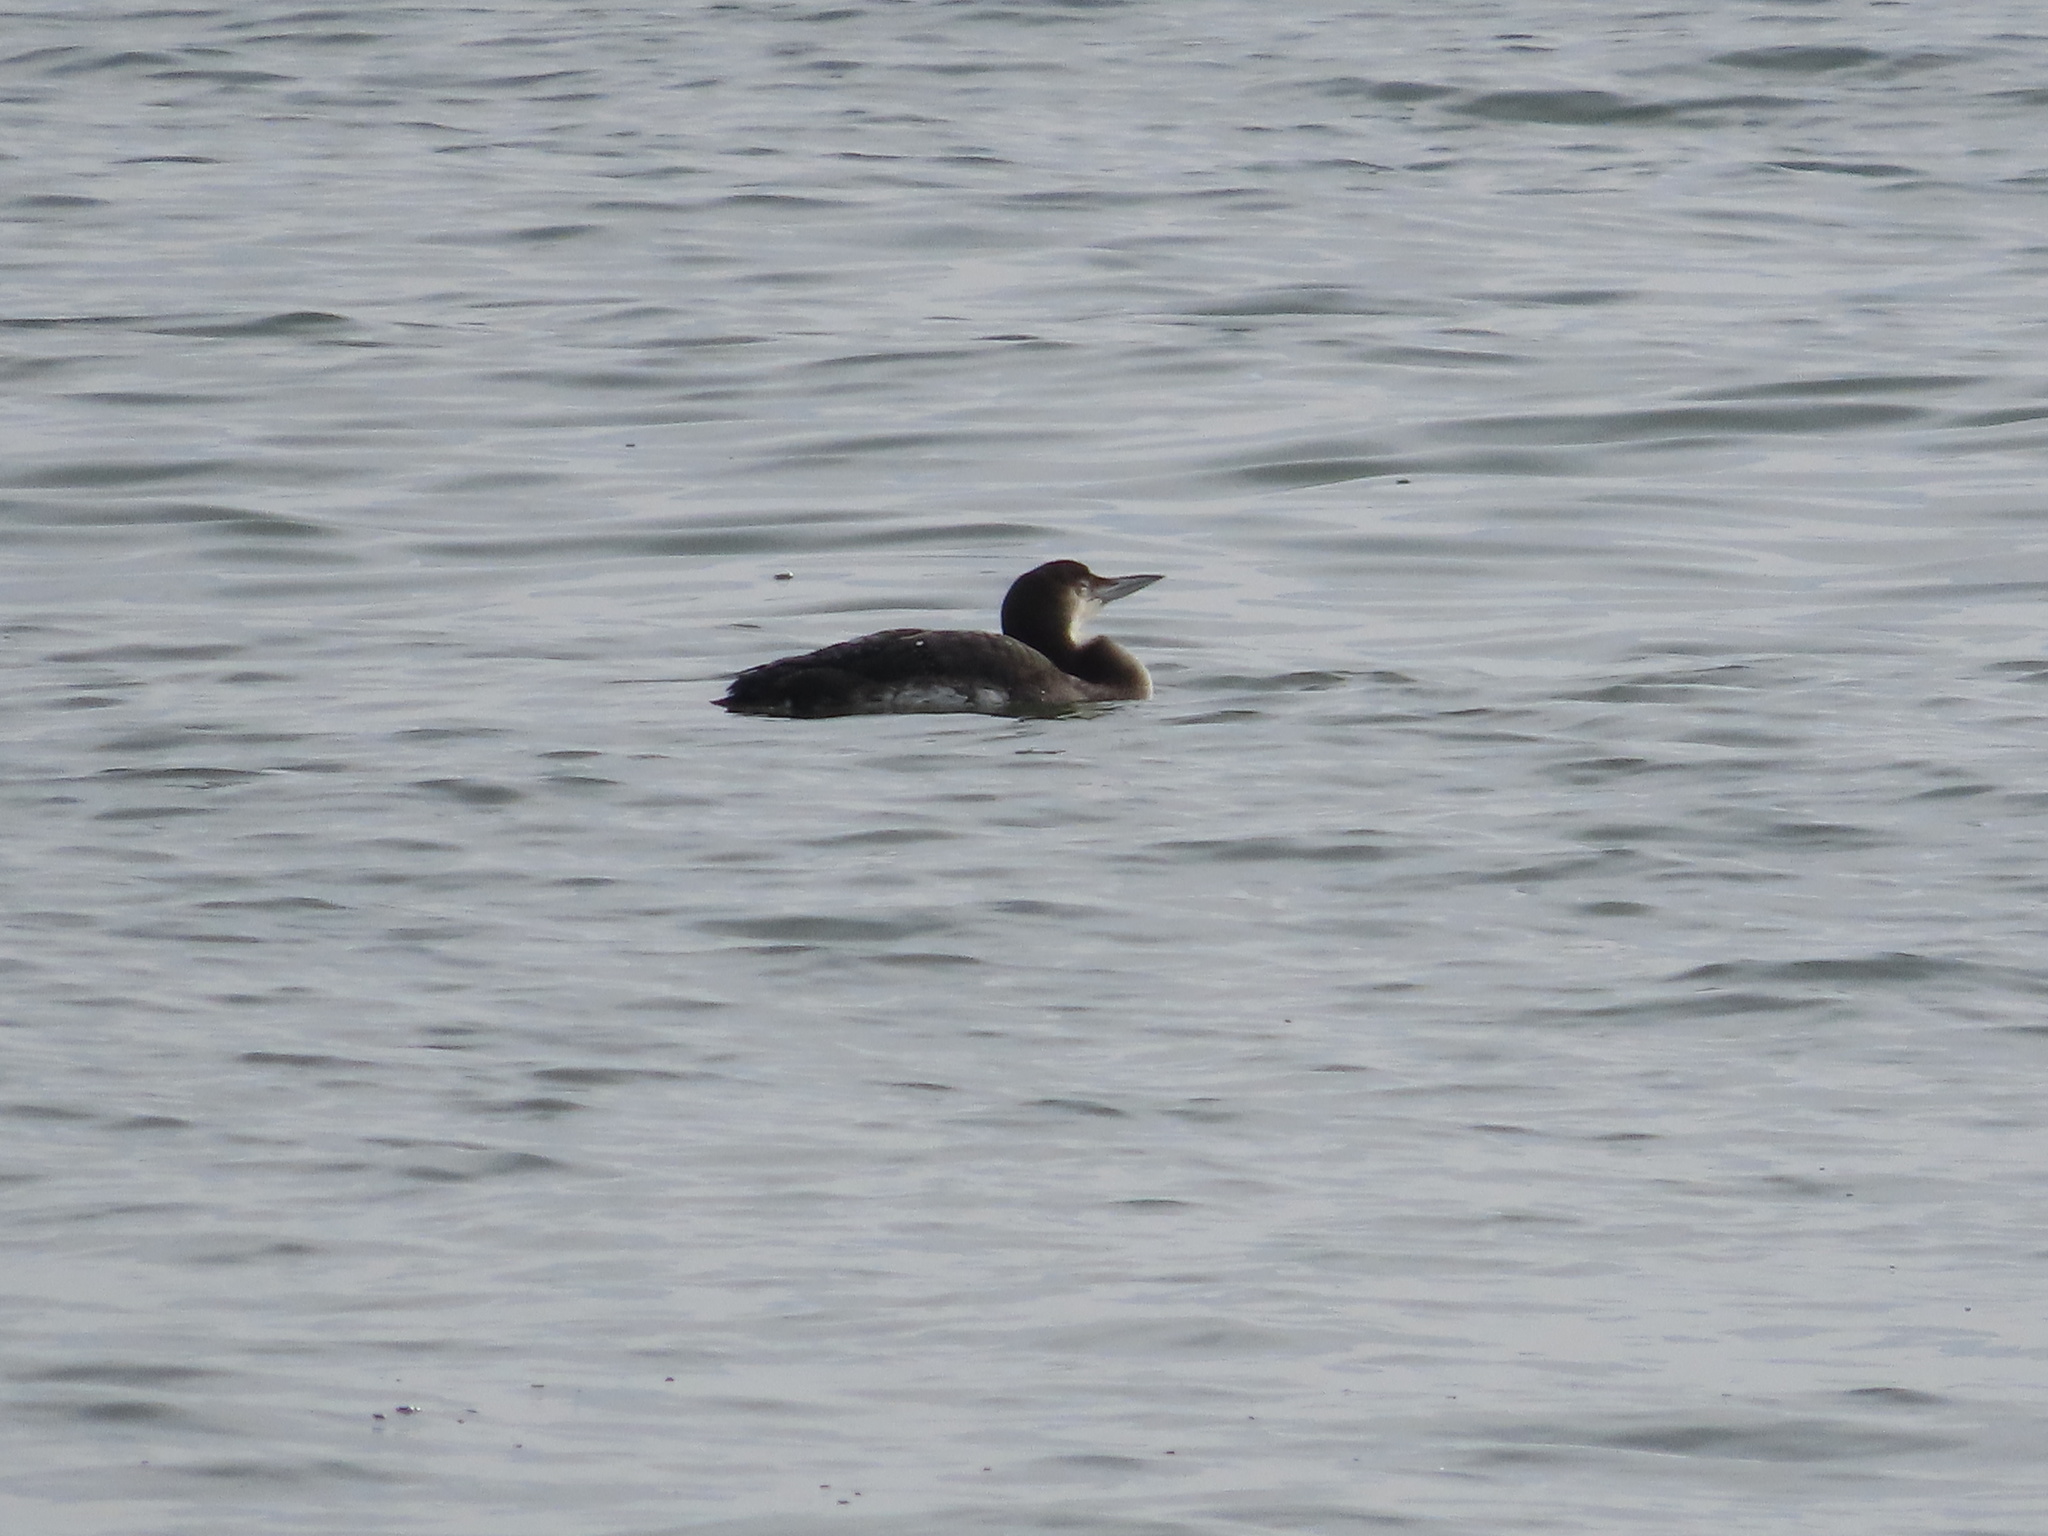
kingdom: Animalia
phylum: Chordata
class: Aves
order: Gaviiformes
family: Gaviidae
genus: Gavia
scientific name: Gavia immer
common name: Common loon
